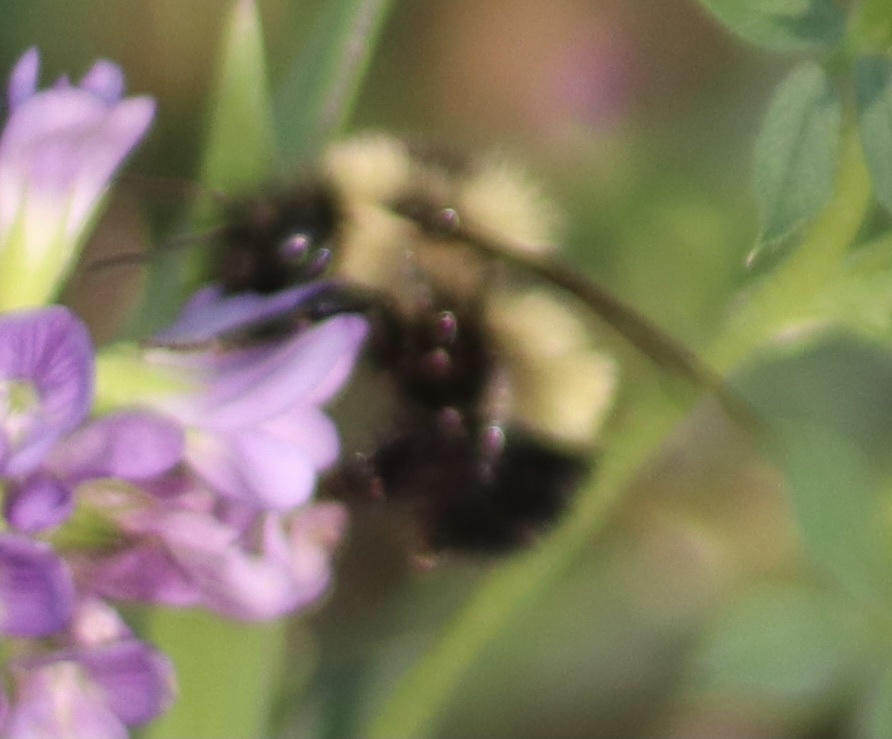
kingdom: Animalia
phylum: Arthropoda
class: Insecta
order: Hymenoptera
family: Apidae
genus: Bombus
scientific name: Bombus vagans
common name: Half-black bumble bee
